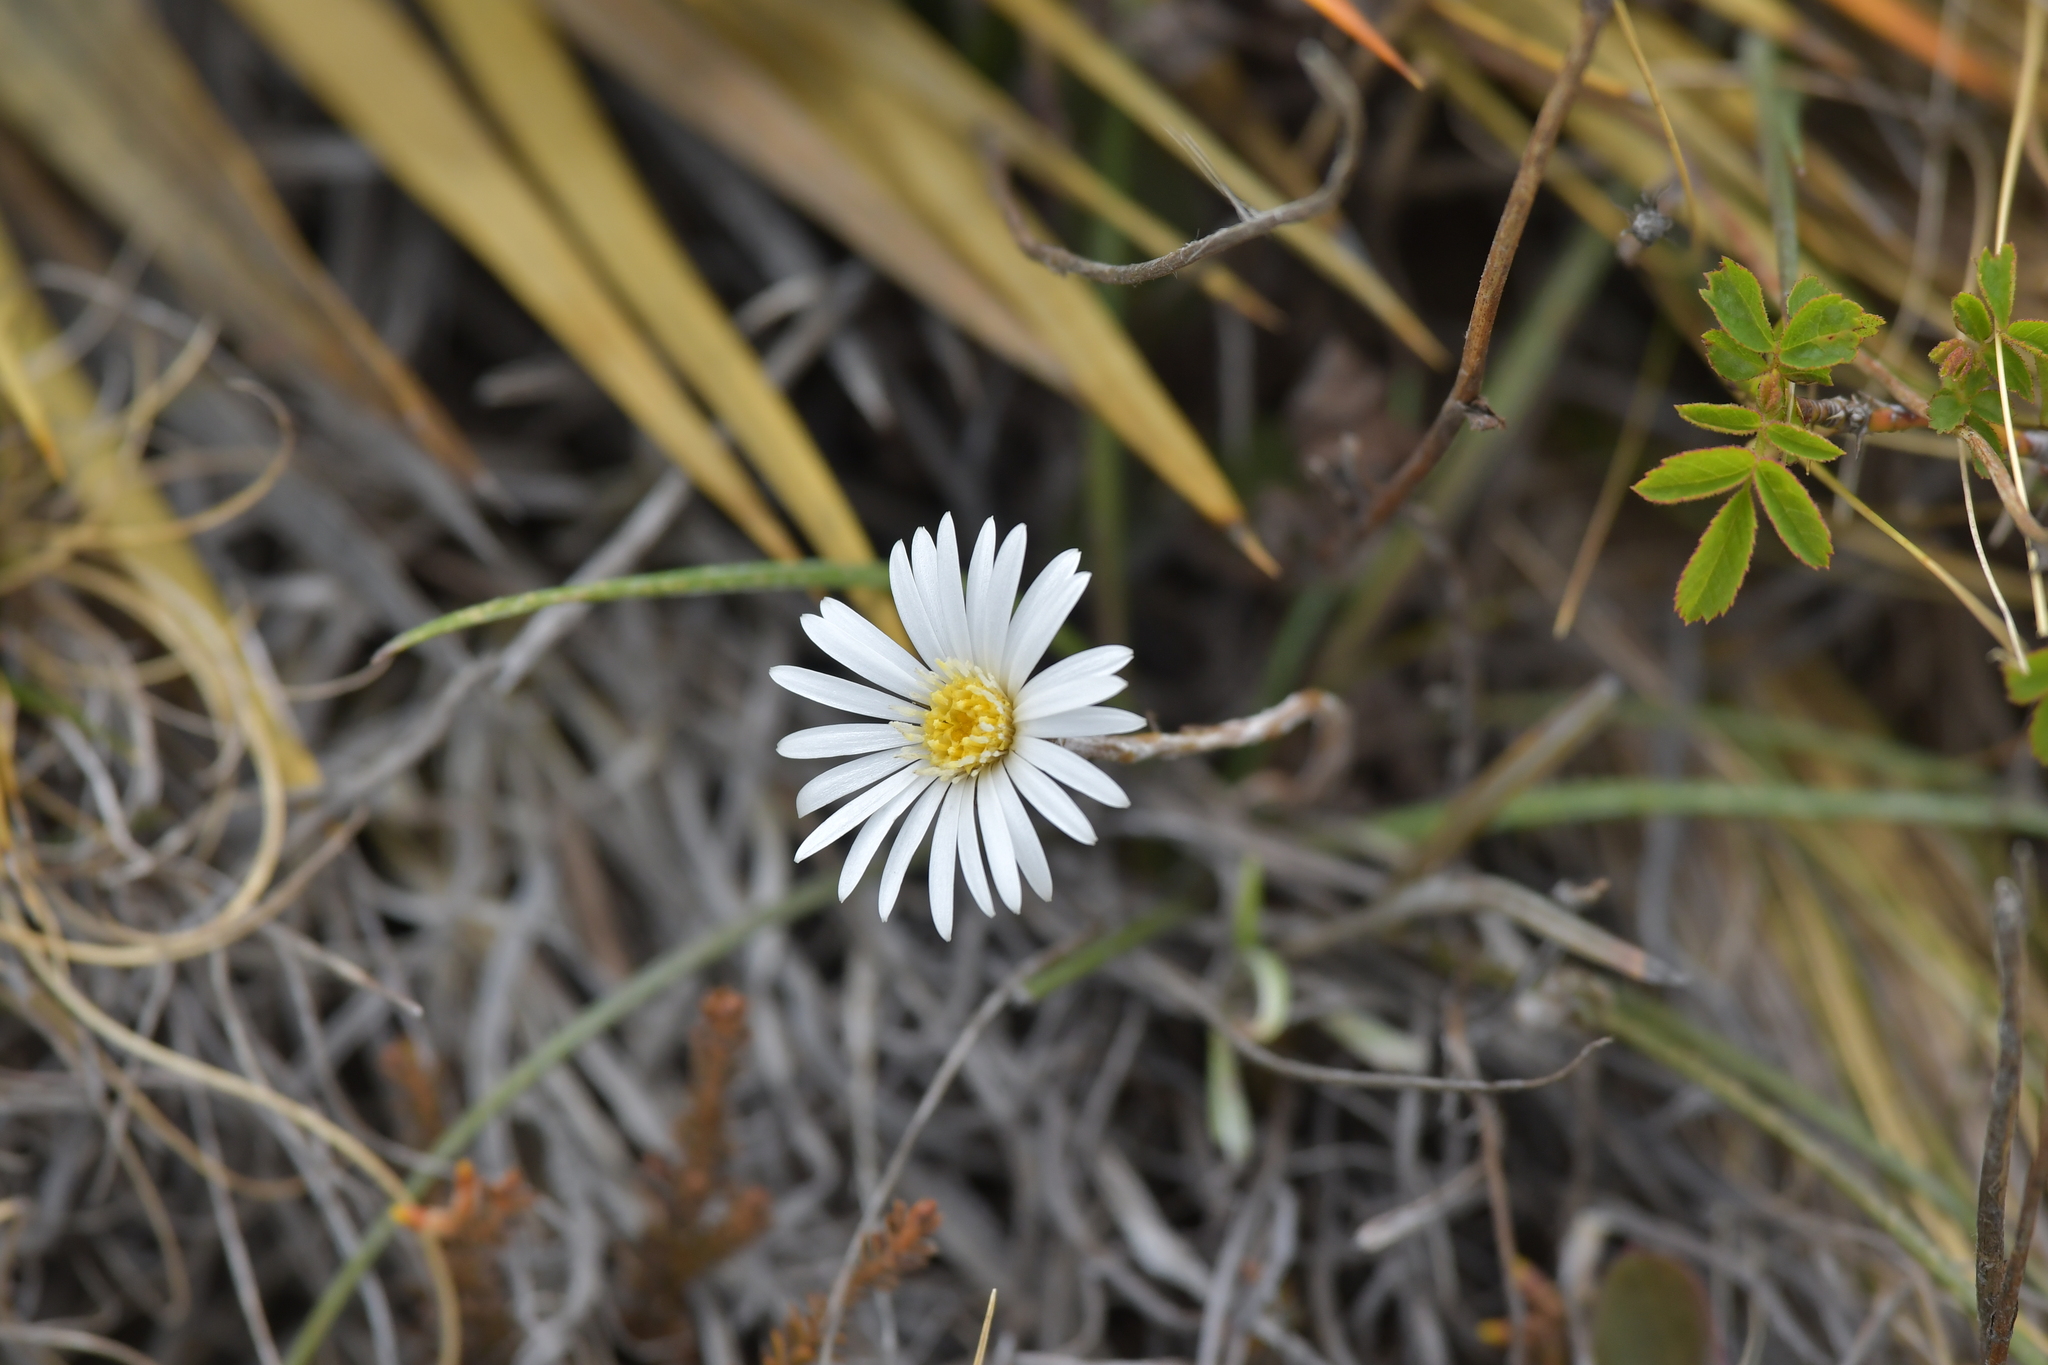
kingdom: Plantae
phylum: Tracheophyta
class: Magnoliopsida
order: Asterales
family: Asteraceae
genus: Celmisia
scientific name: Celmisia gracilenta
